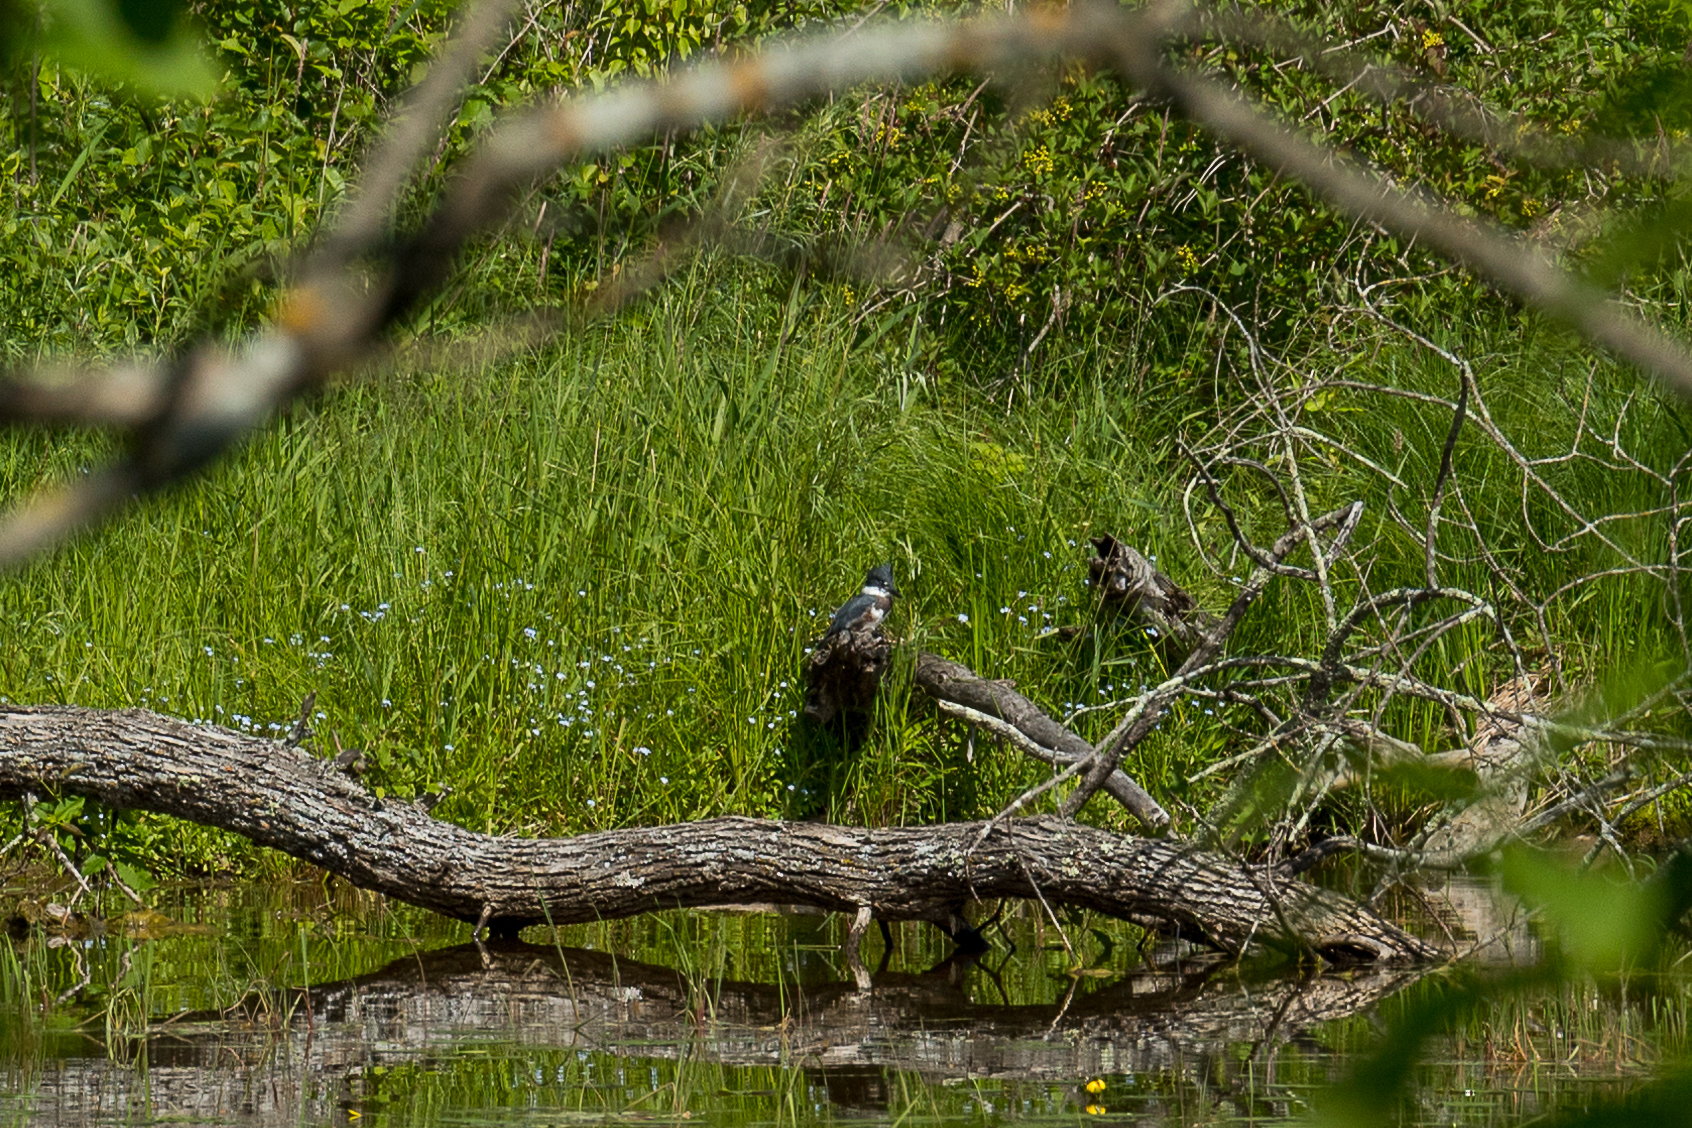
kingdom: Animalia
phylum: Chordata
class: Aves
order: Coraciiformes
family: Alcedinidae
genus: Megaceryle
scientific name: Megaceryle alcyon
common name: Belted kingfisher
